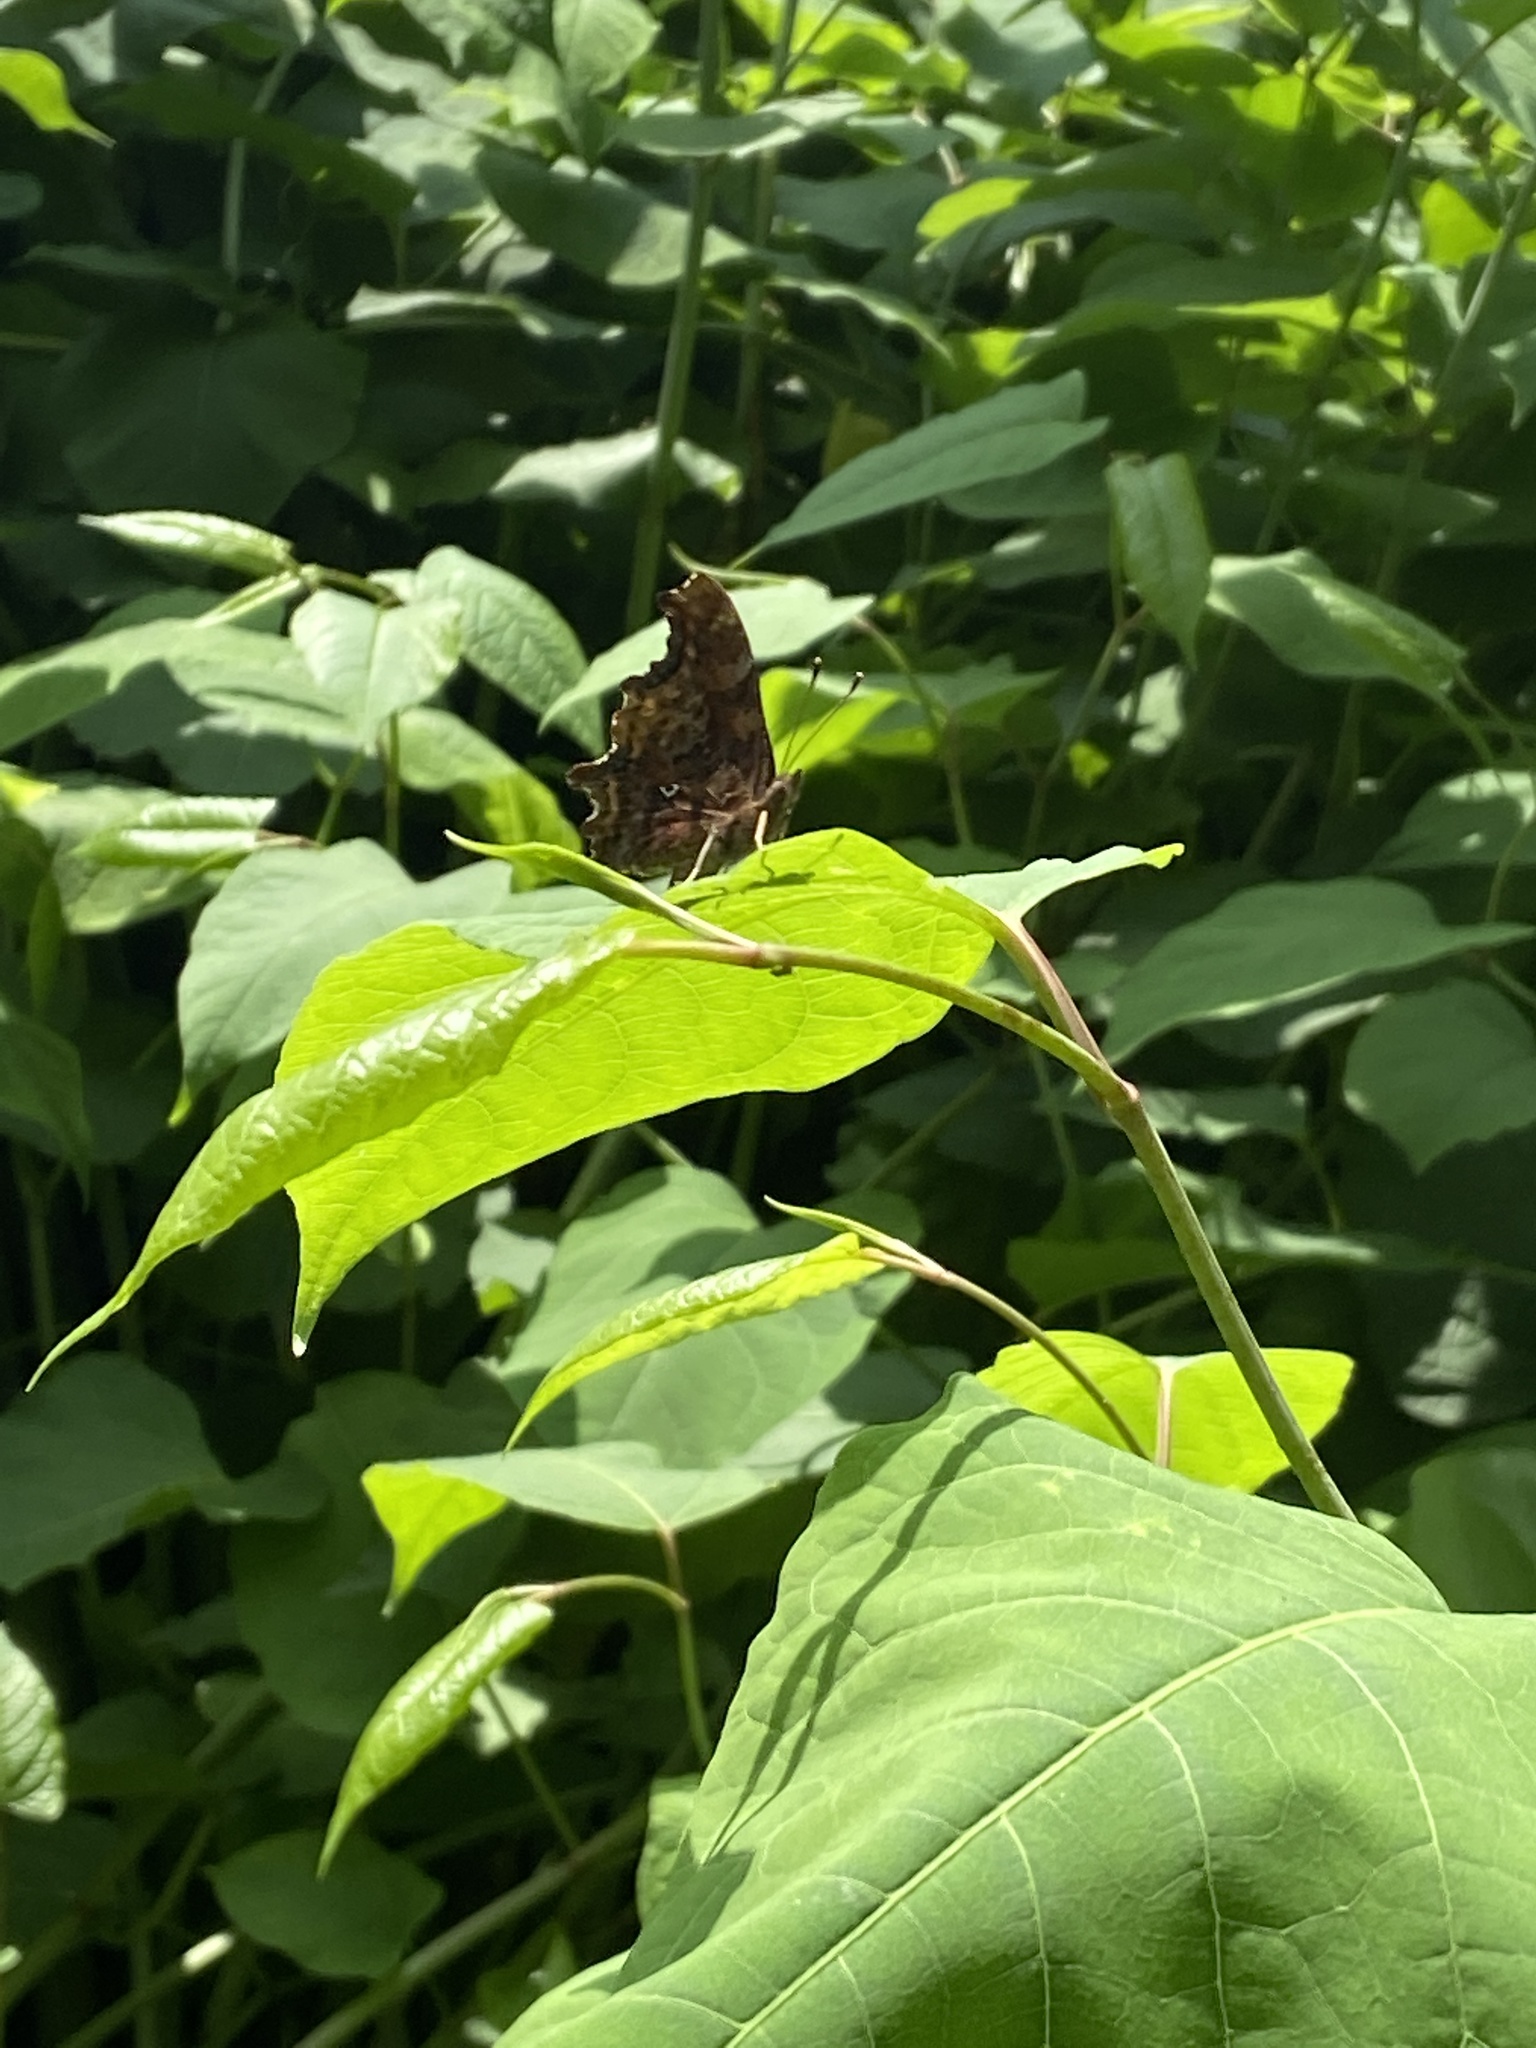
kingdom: Animalia
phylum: Arthropoda
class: Insecta
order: Lepidoptera
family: Nymphalidae
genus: Polygonia
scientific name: Polygonia c-album
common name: Comma
